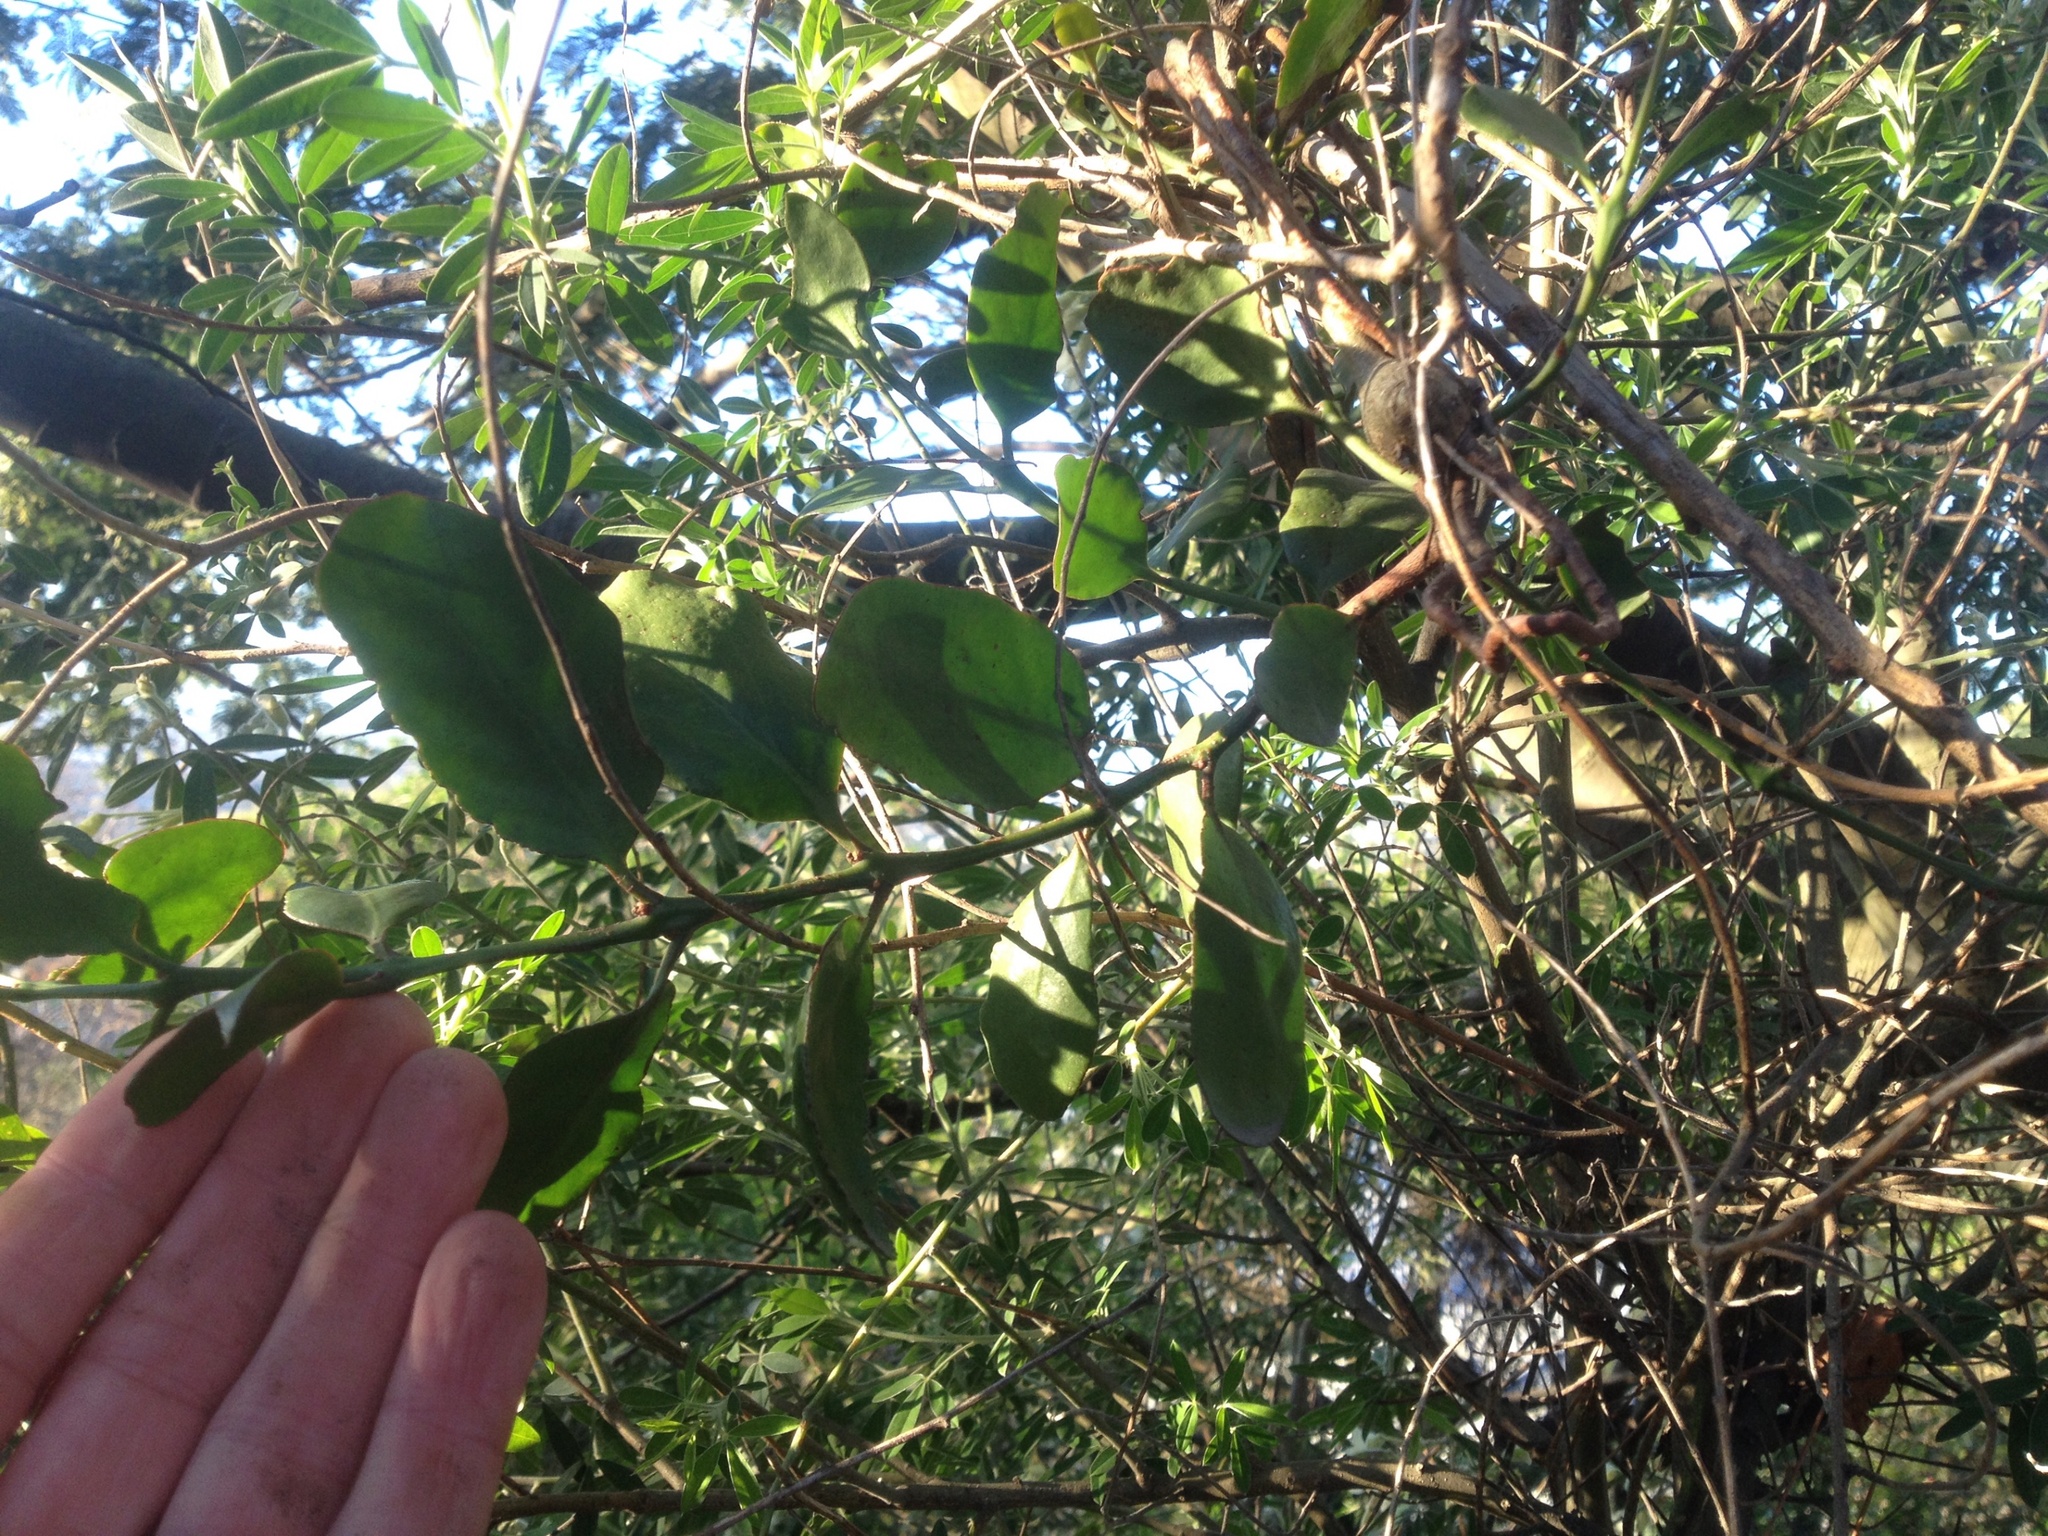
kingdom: Plantae
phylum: Tracheophyta
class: Magnoliopsida
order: Santalales
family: Loranthaceae
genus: Ileostylus
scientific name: Ileostylus micranthus
